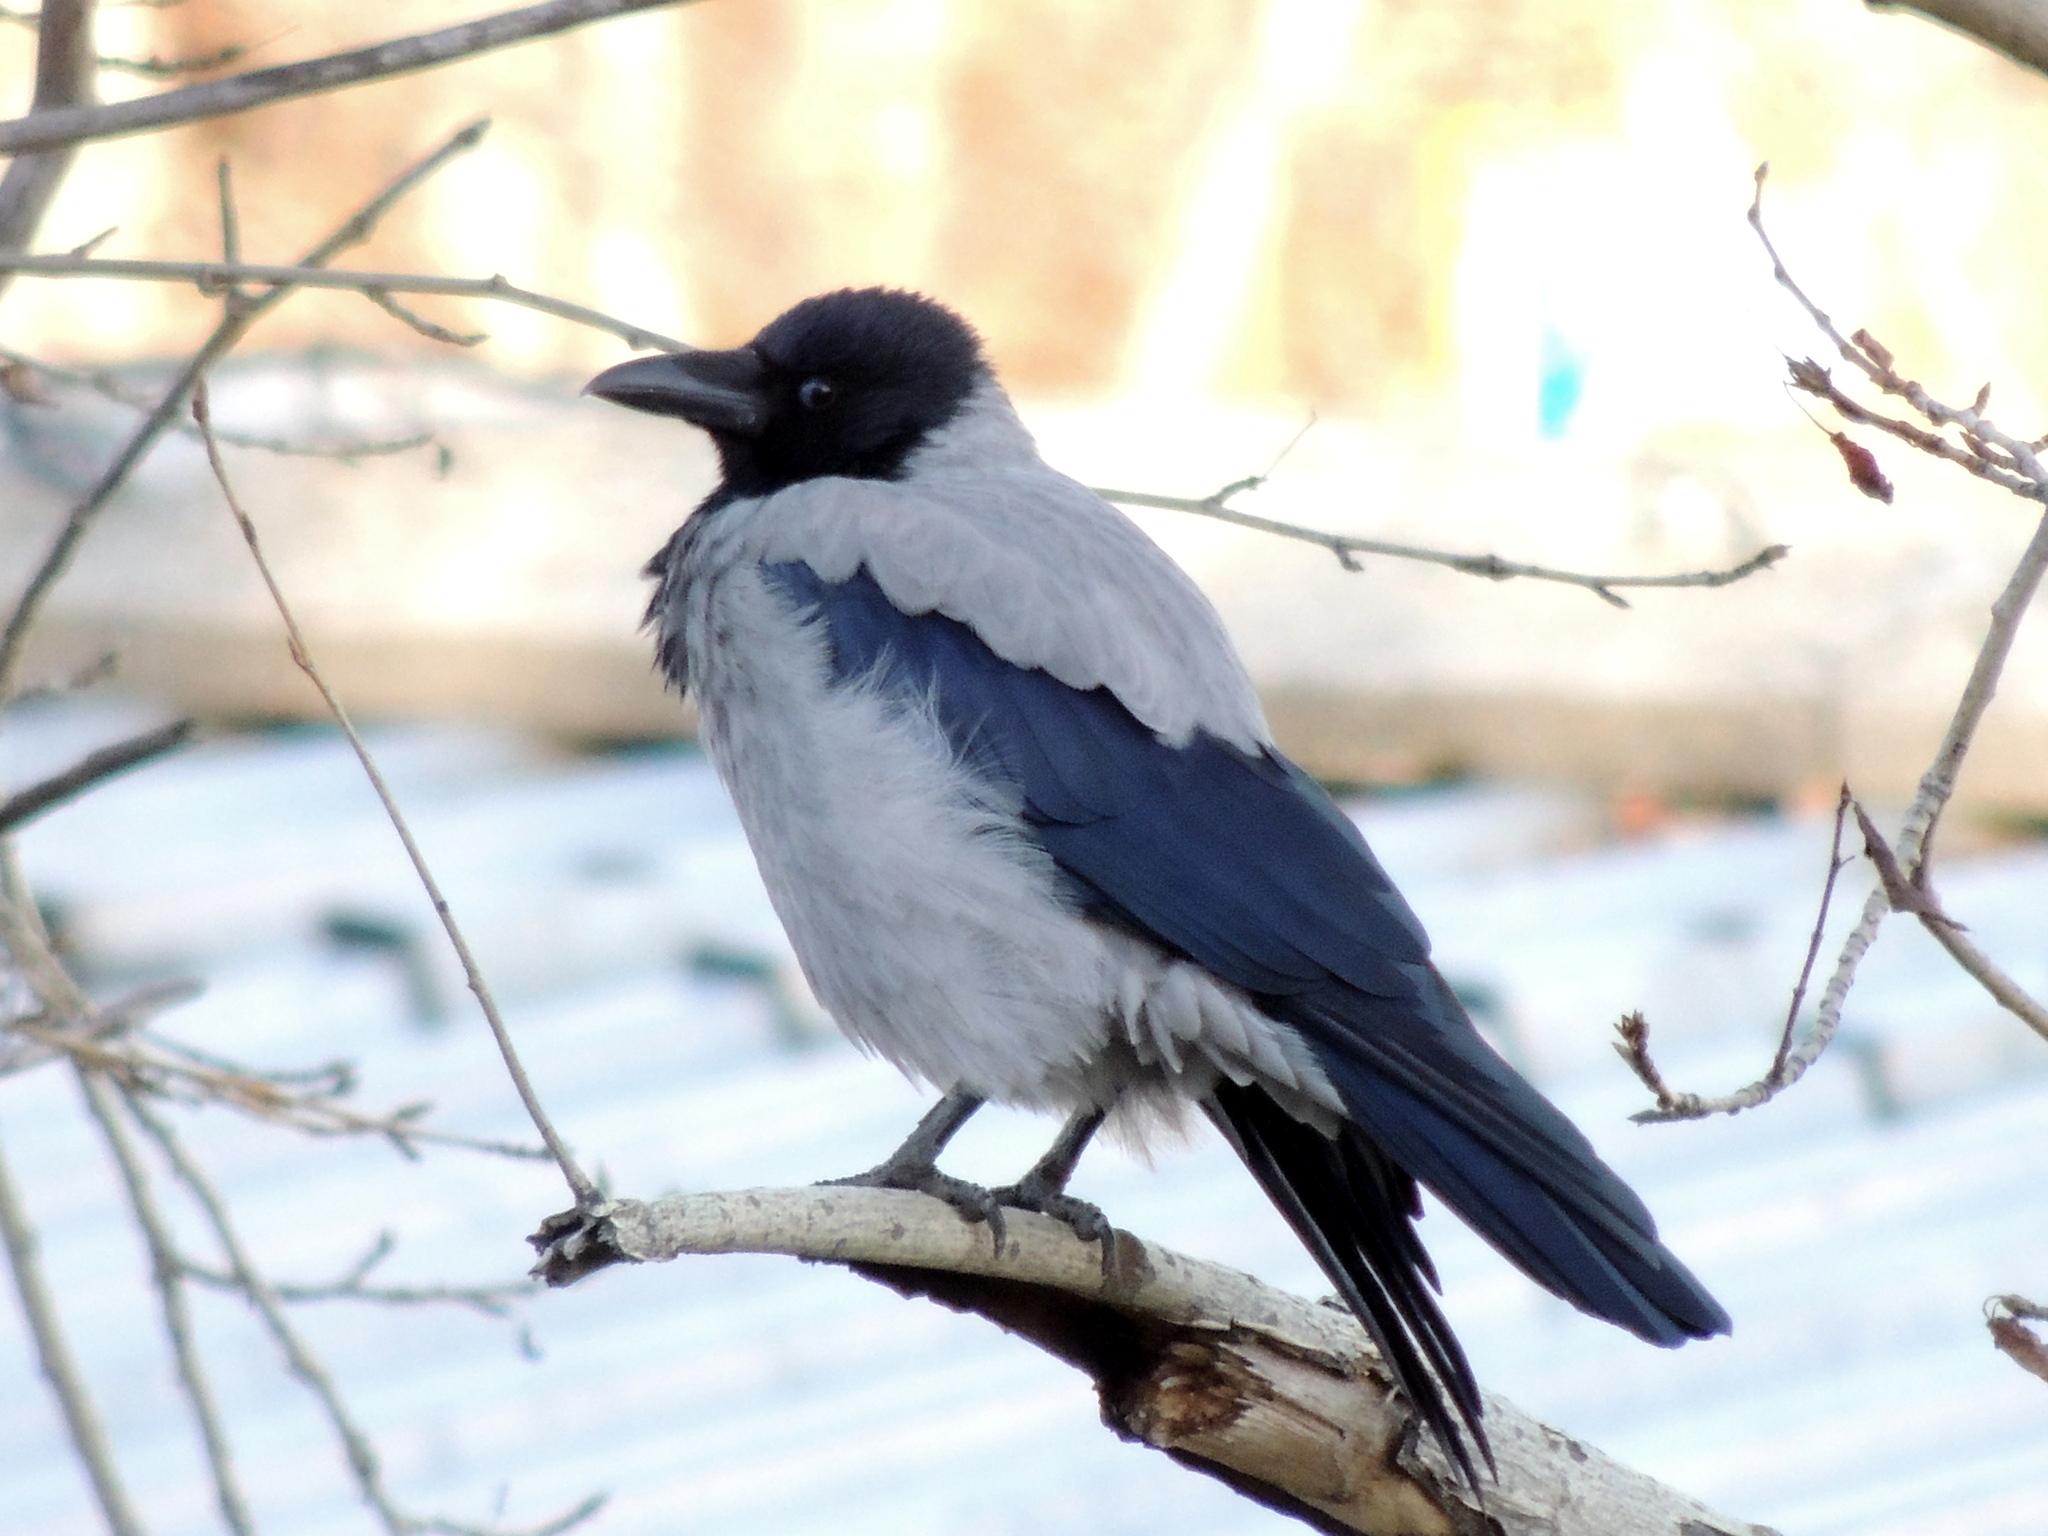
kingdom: Animalia
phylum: Chordata
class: Aves
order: Passeriformes
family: Corvidae
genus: Corvus
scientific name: Corvus cornix
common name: Hooded crow
